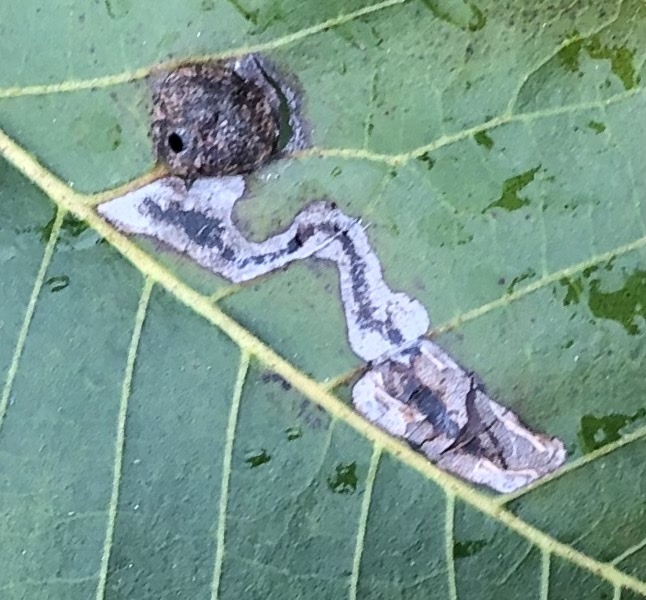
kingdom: Animalia
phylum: Arthropoda
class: Insecta
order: Lepidoptera
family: Gracillariidae
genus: Cameraria
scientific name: Cameraria caryaefoliella
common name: Pecan leafminer moth
